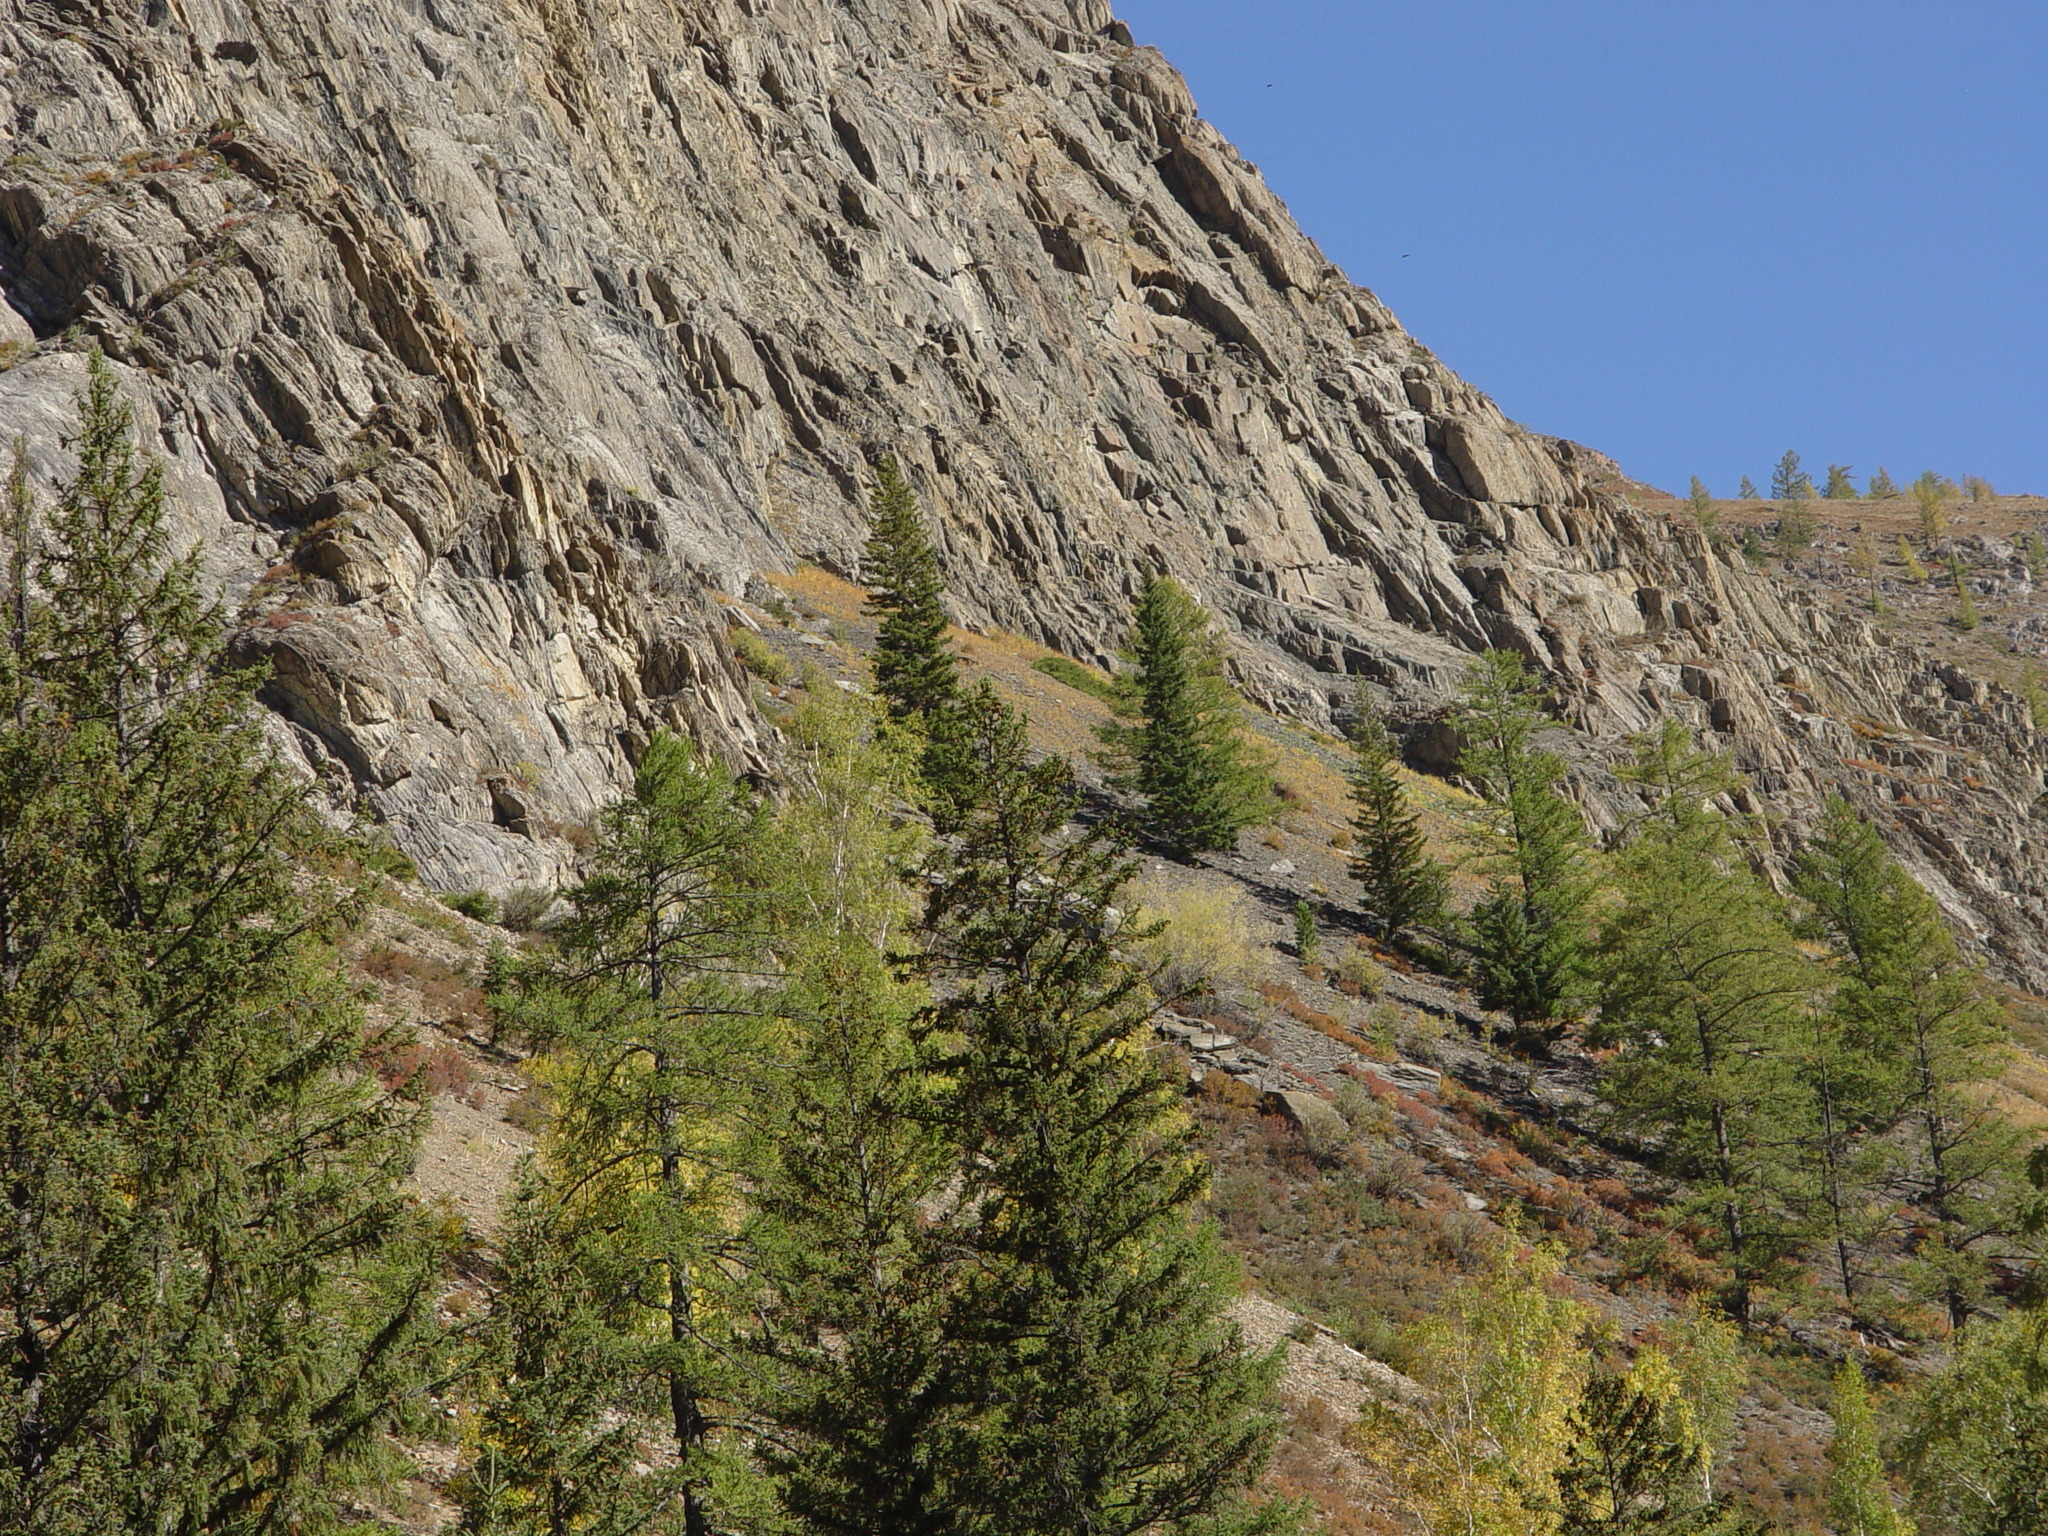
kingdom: Plantae
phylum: Tracheophyta
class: Pinopsida
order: Pinales
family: Pinaceae
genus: Larix
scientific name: Larix sibirica
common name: Siberian larch
